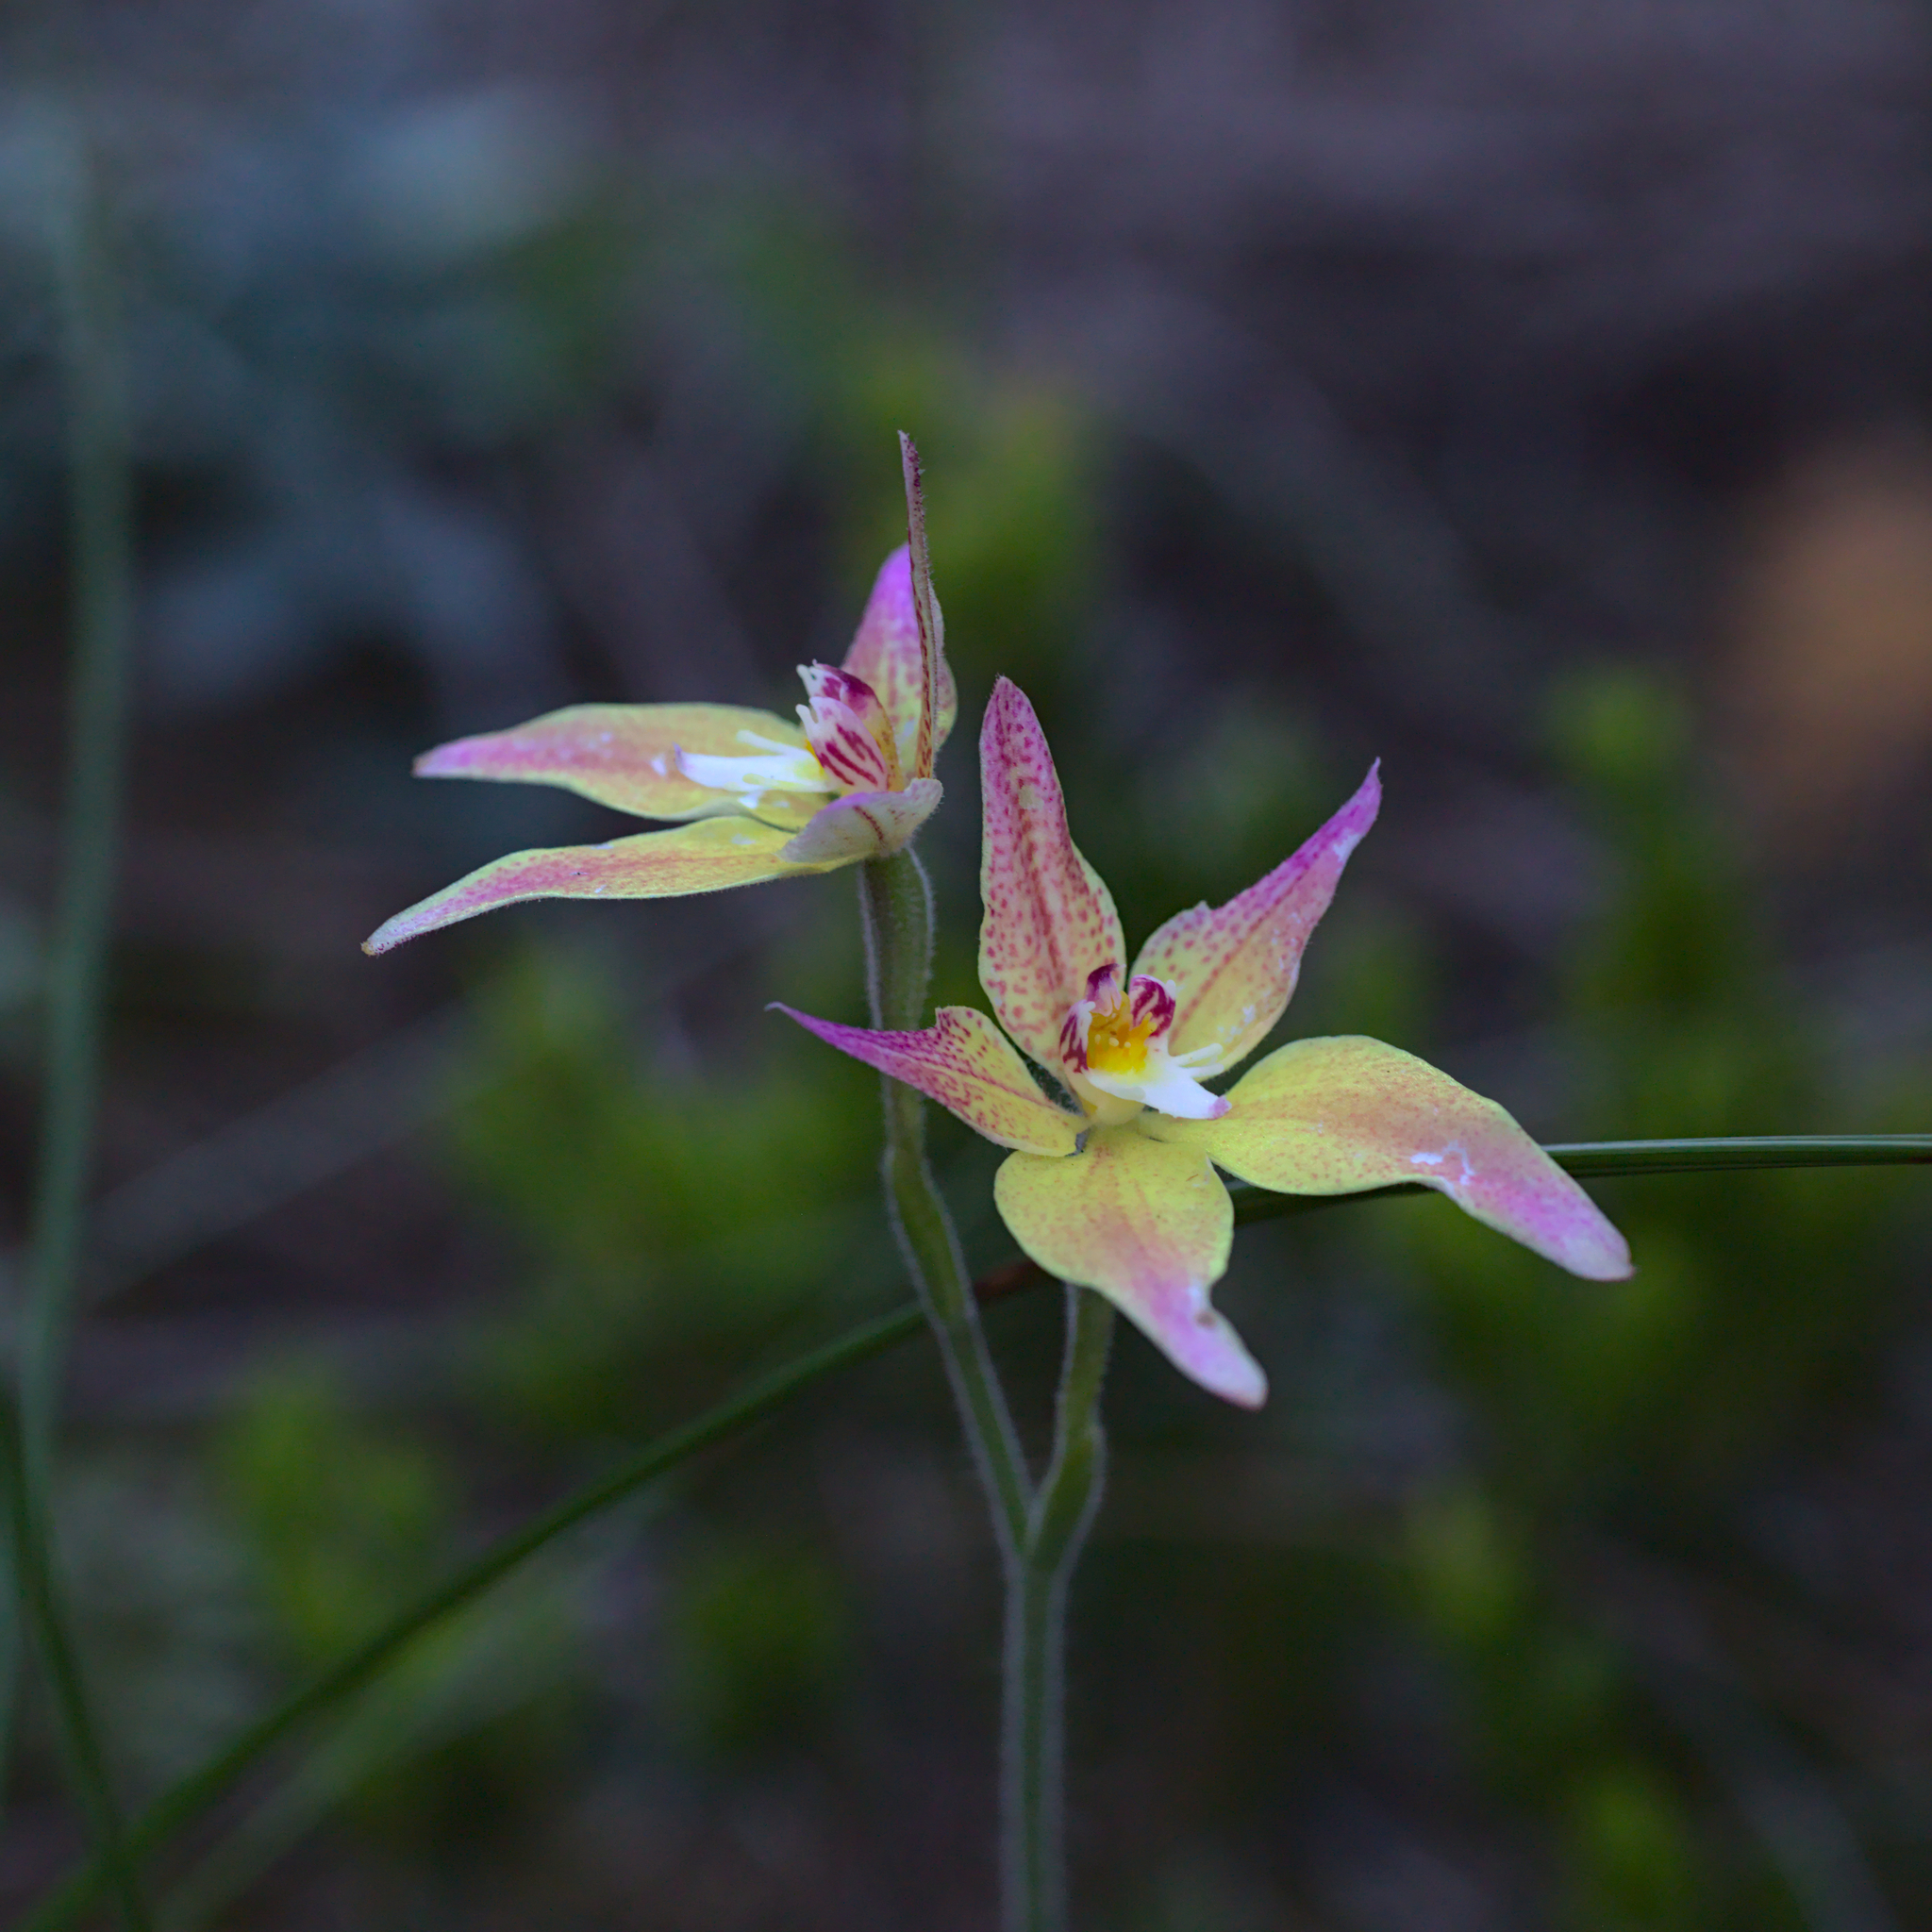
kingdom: Plantae
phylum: Tracheophyta
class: Liliopsida
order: Asparagales
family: Orchidaceae
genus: Caladenia
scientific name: Caladenia spectabilis
